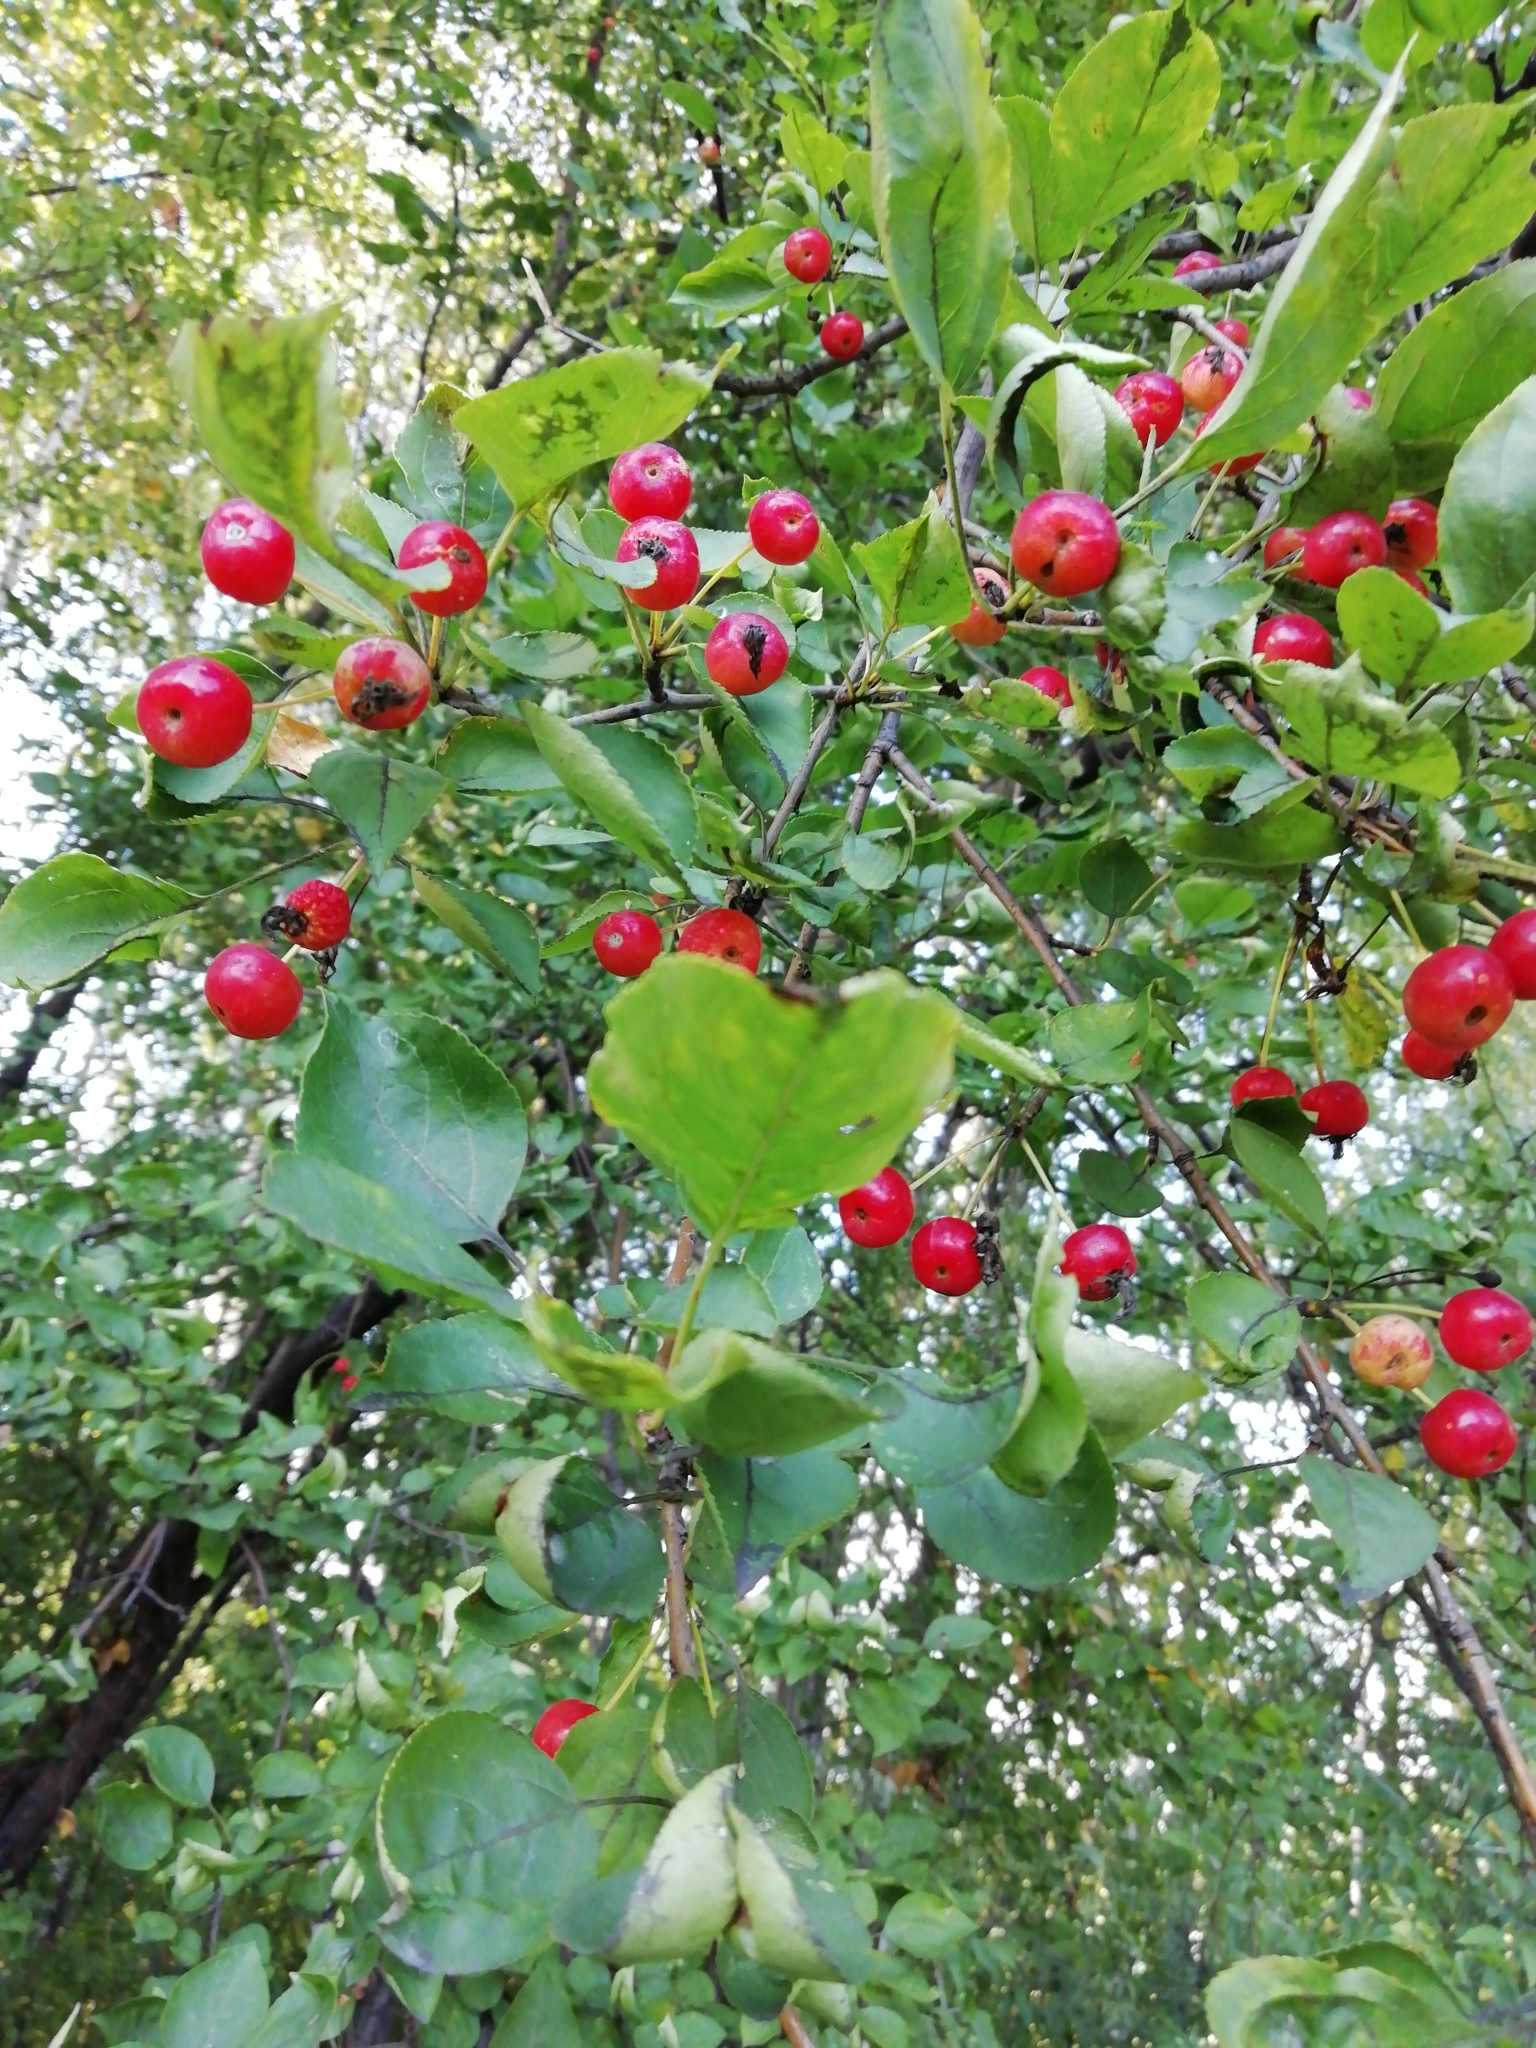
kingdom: Plantae
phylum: Tracheophyta
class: Magnoliopsida
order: Rosales
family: Rosaceae
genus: Malus
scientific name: Malus baccata
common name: Siberian crab
